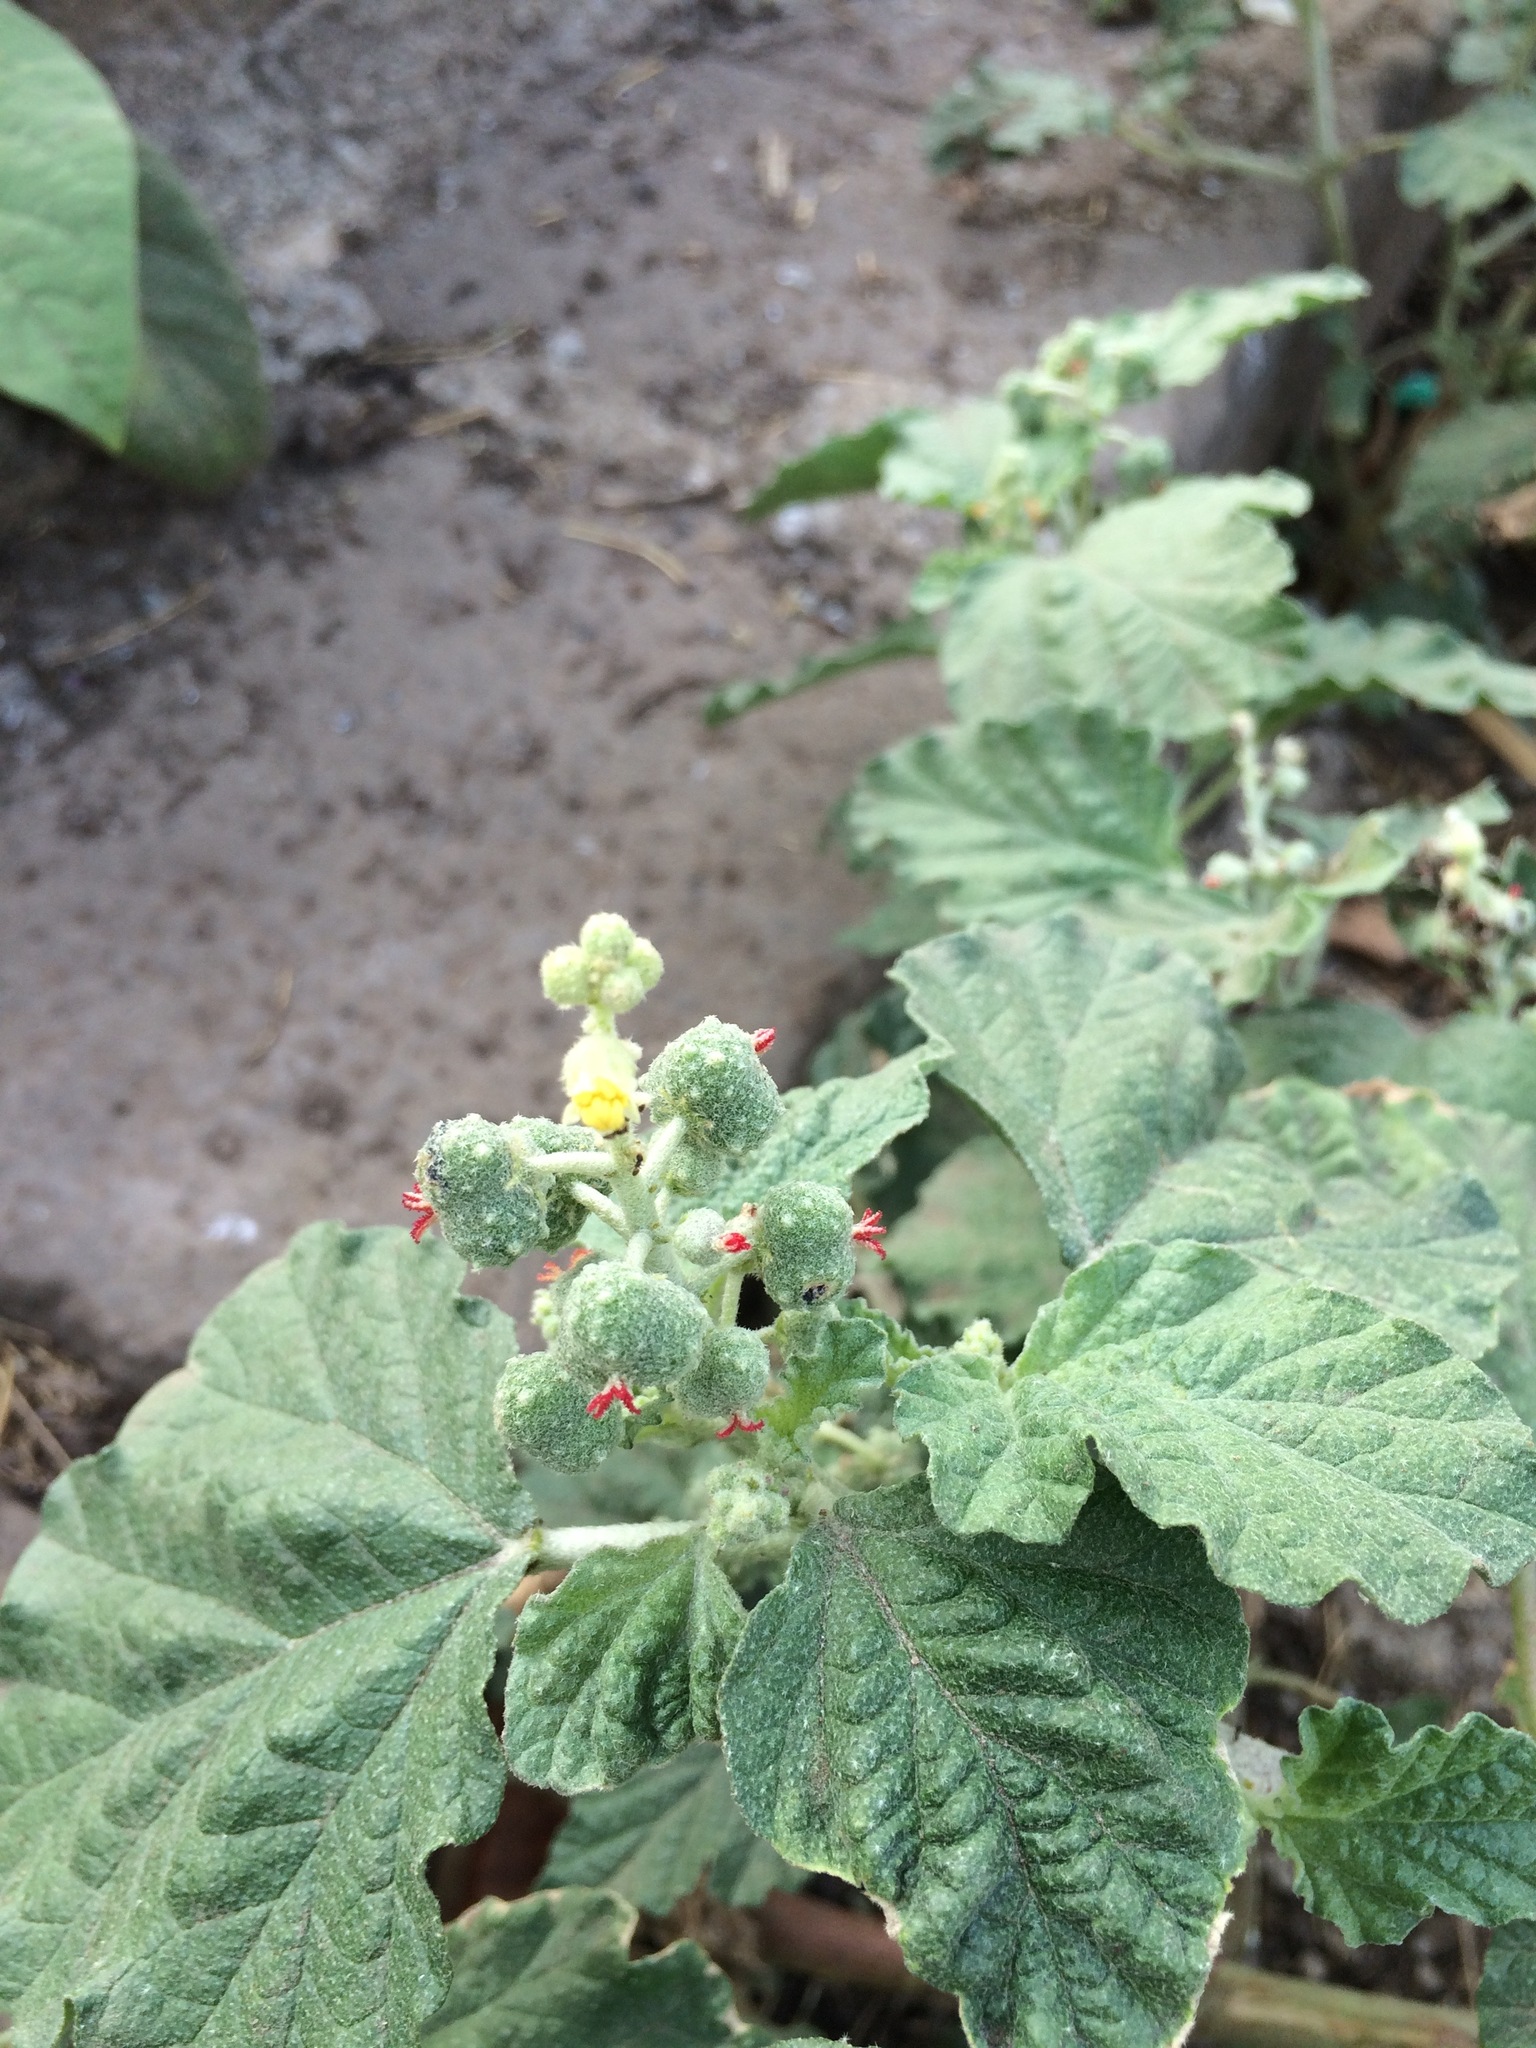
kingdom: Plantae
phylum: Tracheophyta
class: Magnoliopsida
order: Malpighiales
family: Euphorbiaceae
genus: Chrozophora
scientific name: Chrozophora rottleri
